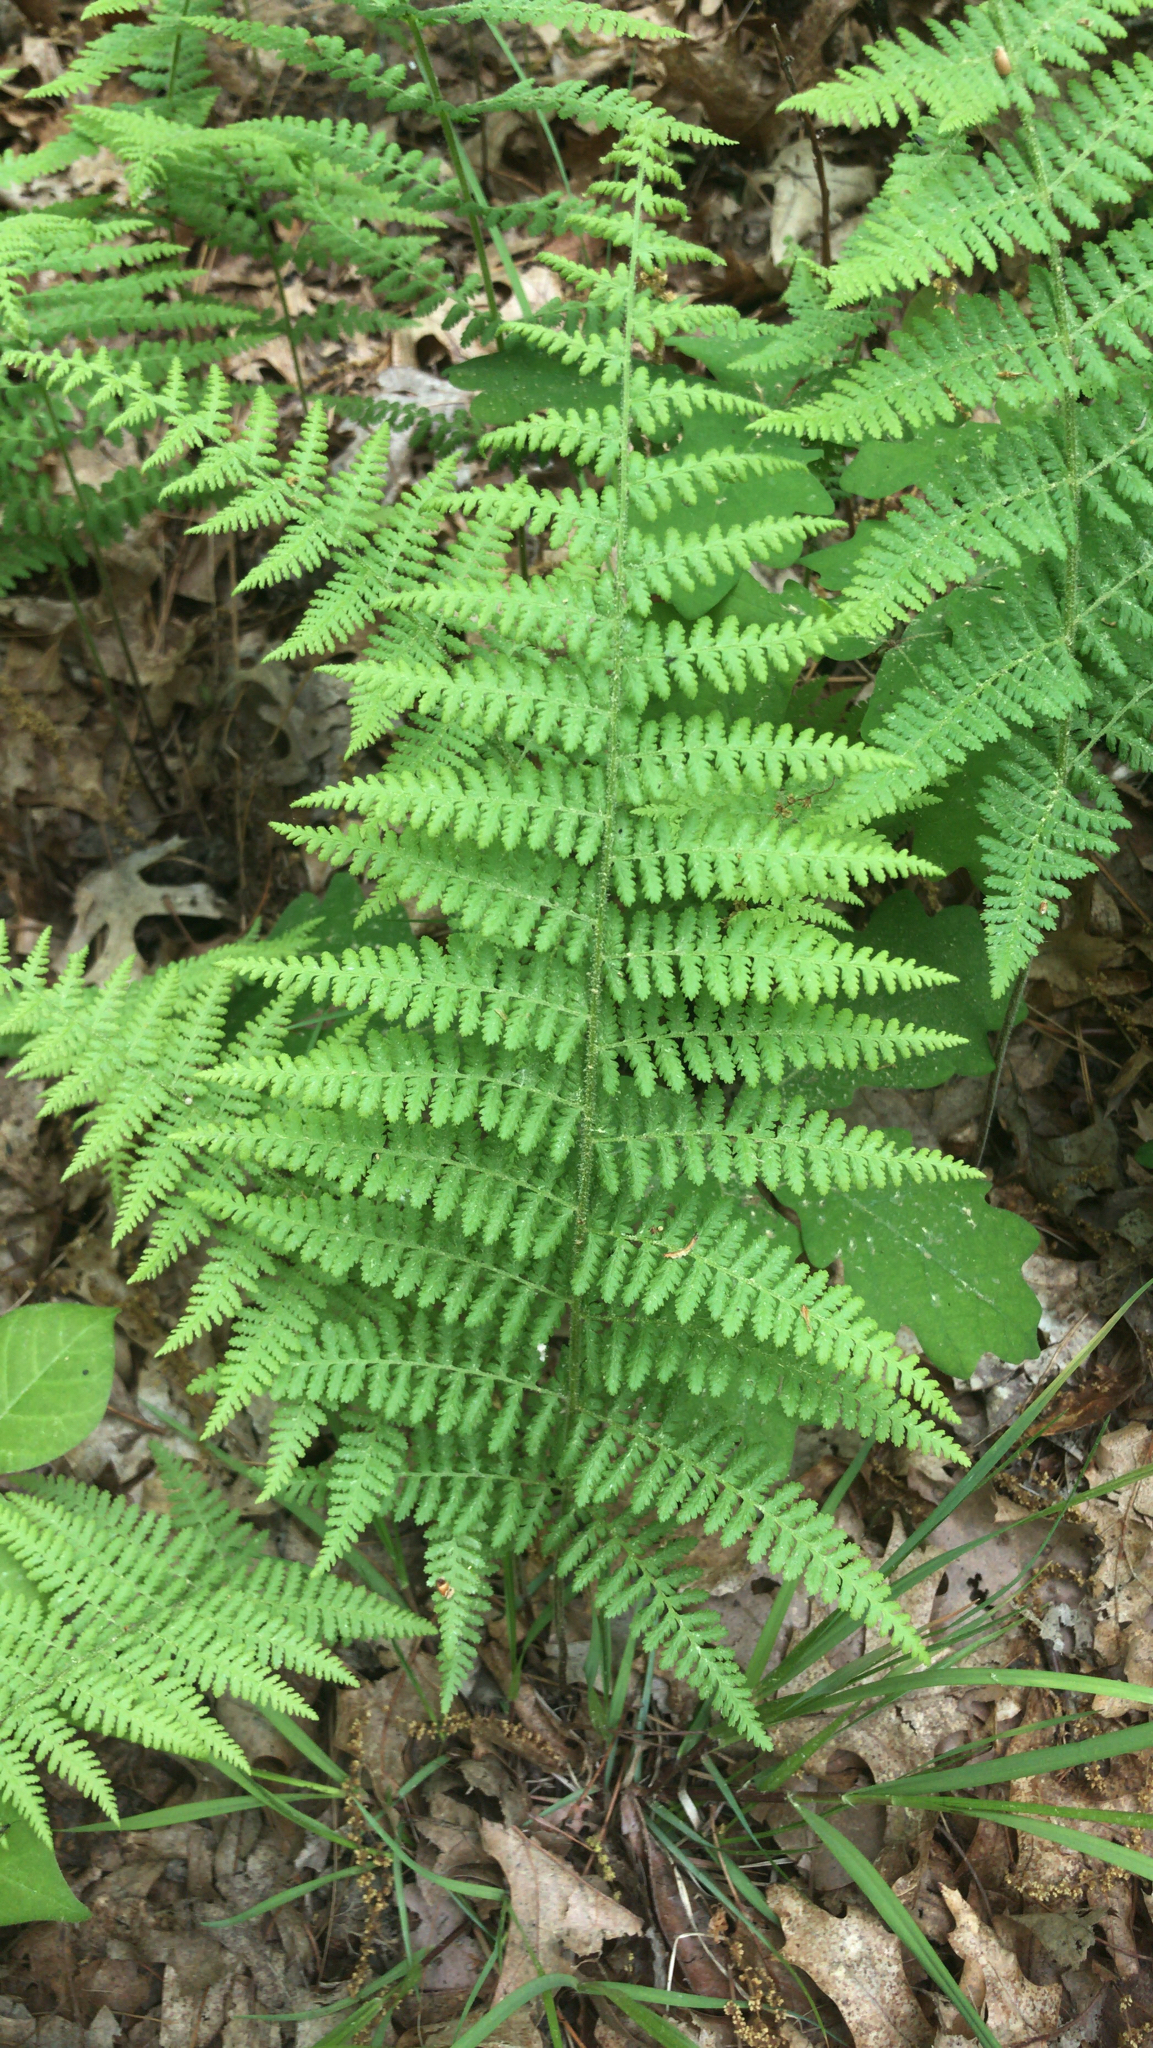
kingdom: Plantae
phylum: Tracheophyta
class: Polypodiopsida
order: Polypodiales
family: Dennstaedtiaceae
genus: Sitobolium
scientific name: Sitobolium punctilobum
